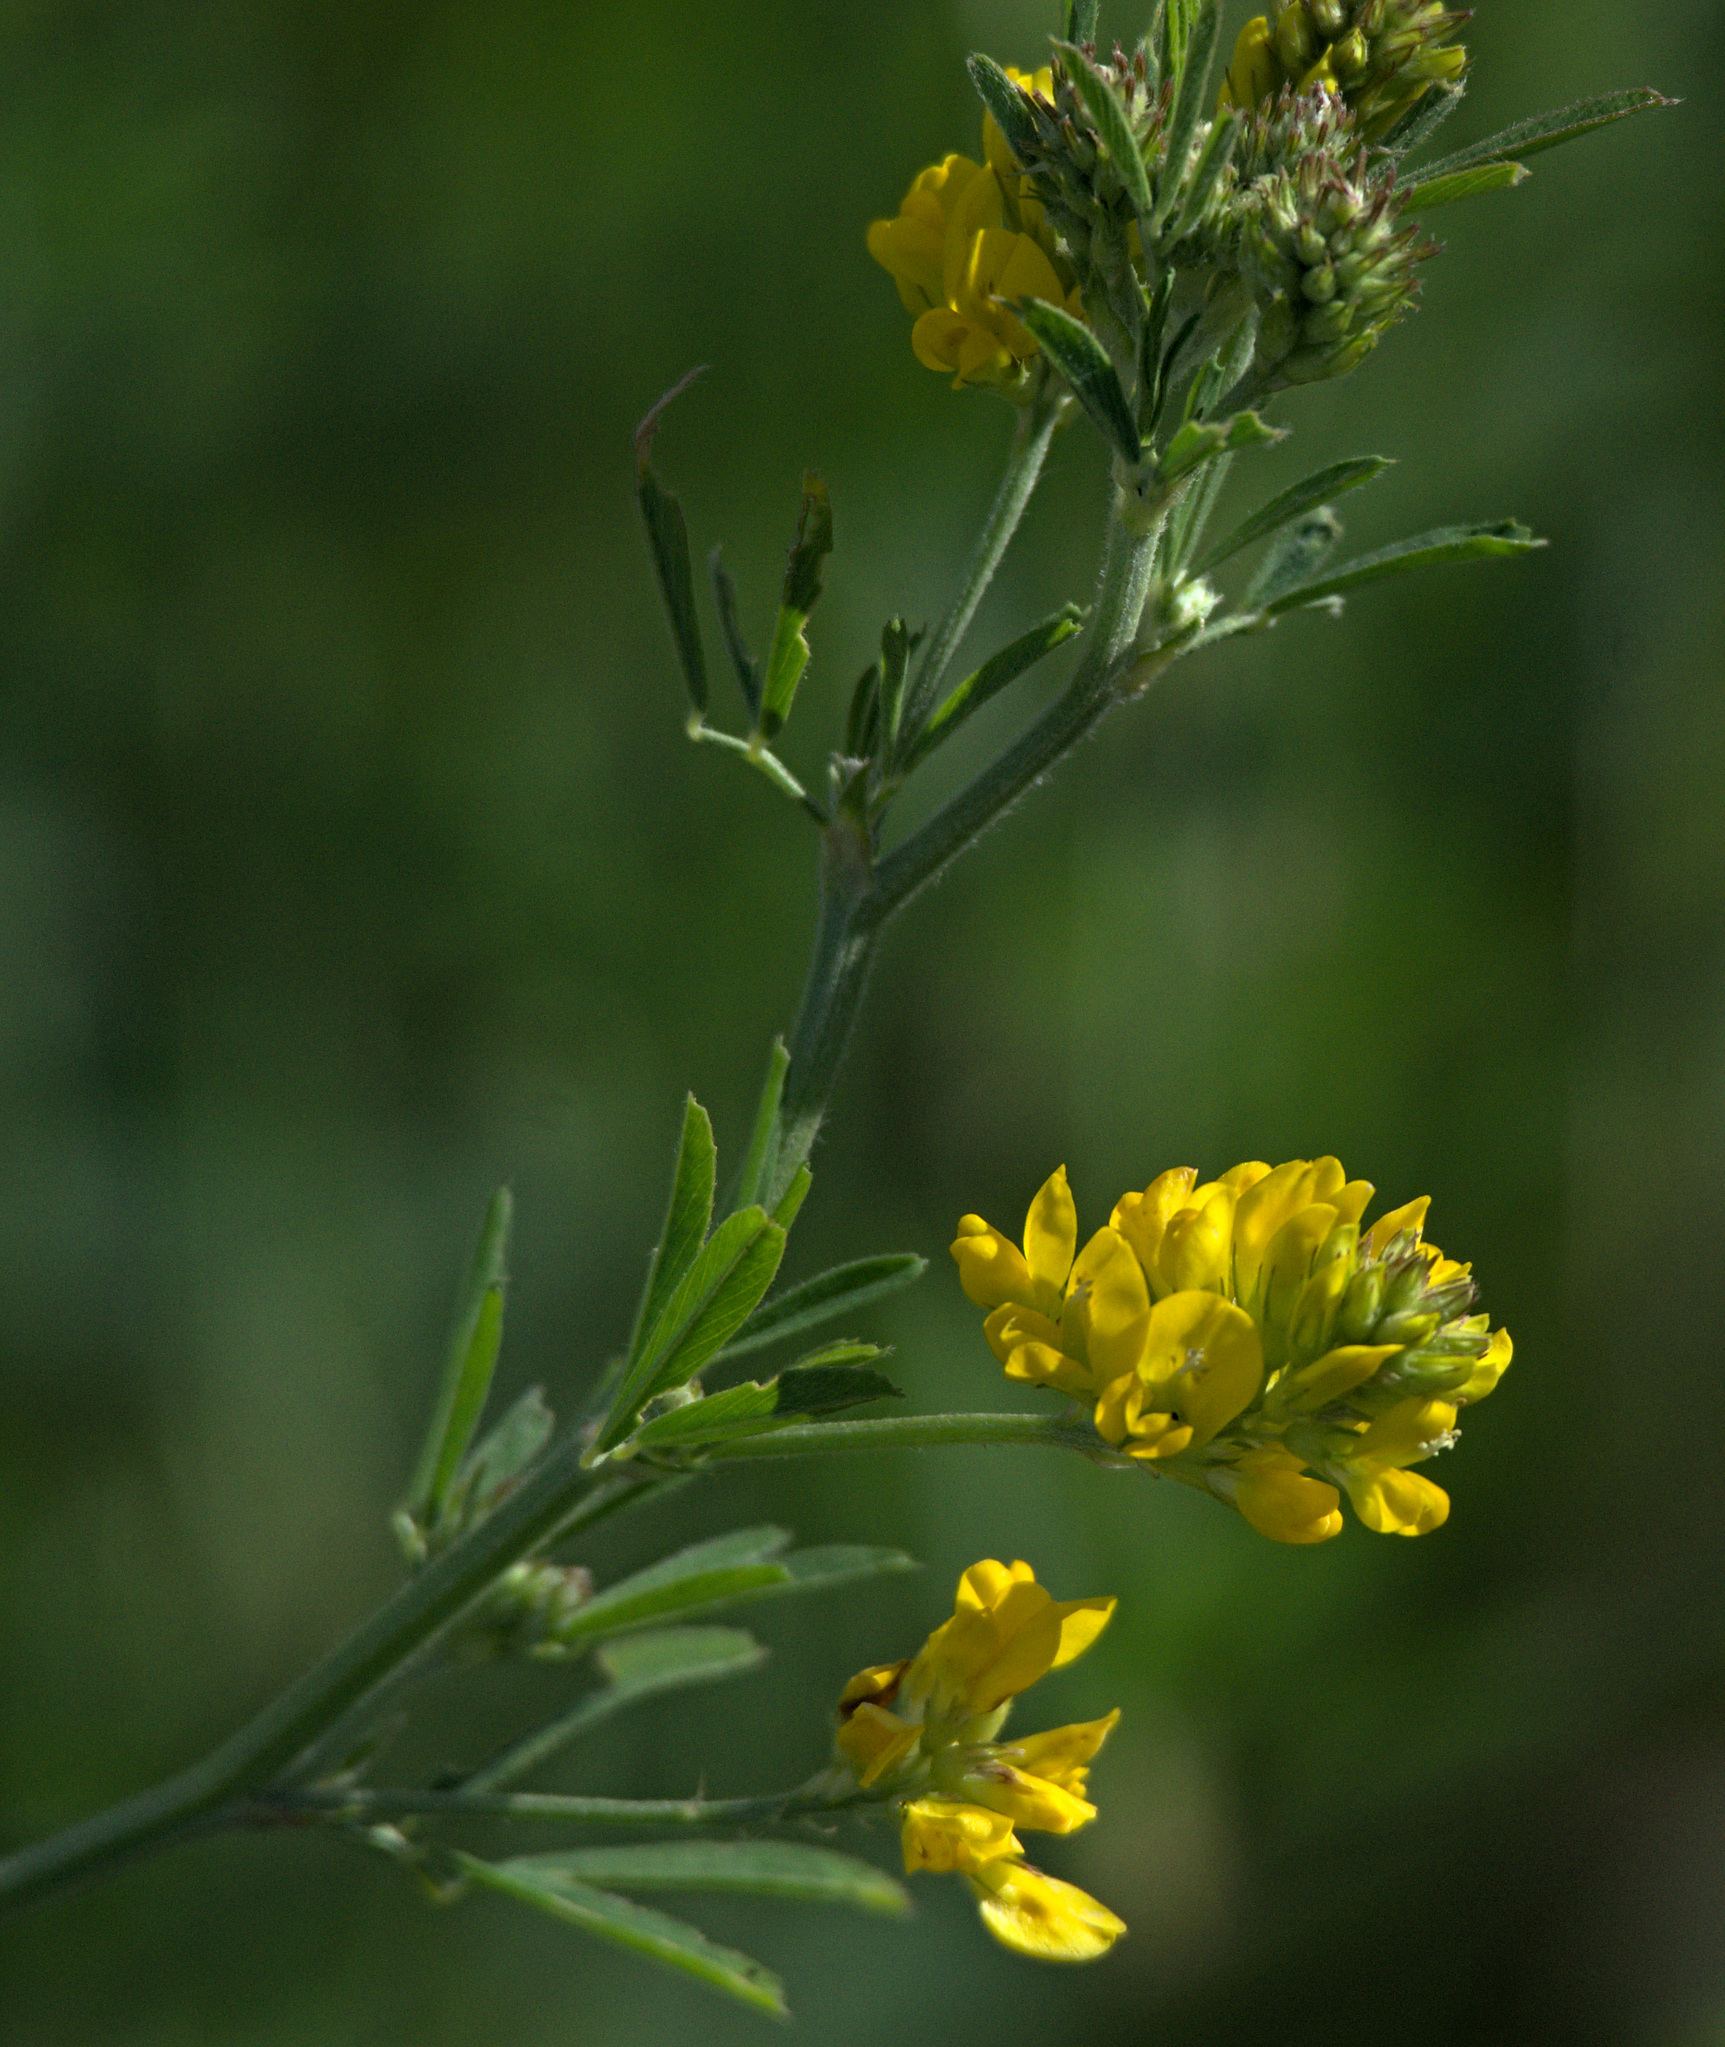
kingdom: Plantae
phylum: Tracheophyta
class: Magnoliopsida
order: Fabales
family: Fabaceae
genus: Medicago
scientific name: Medicago falcata
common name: Sickle medick
